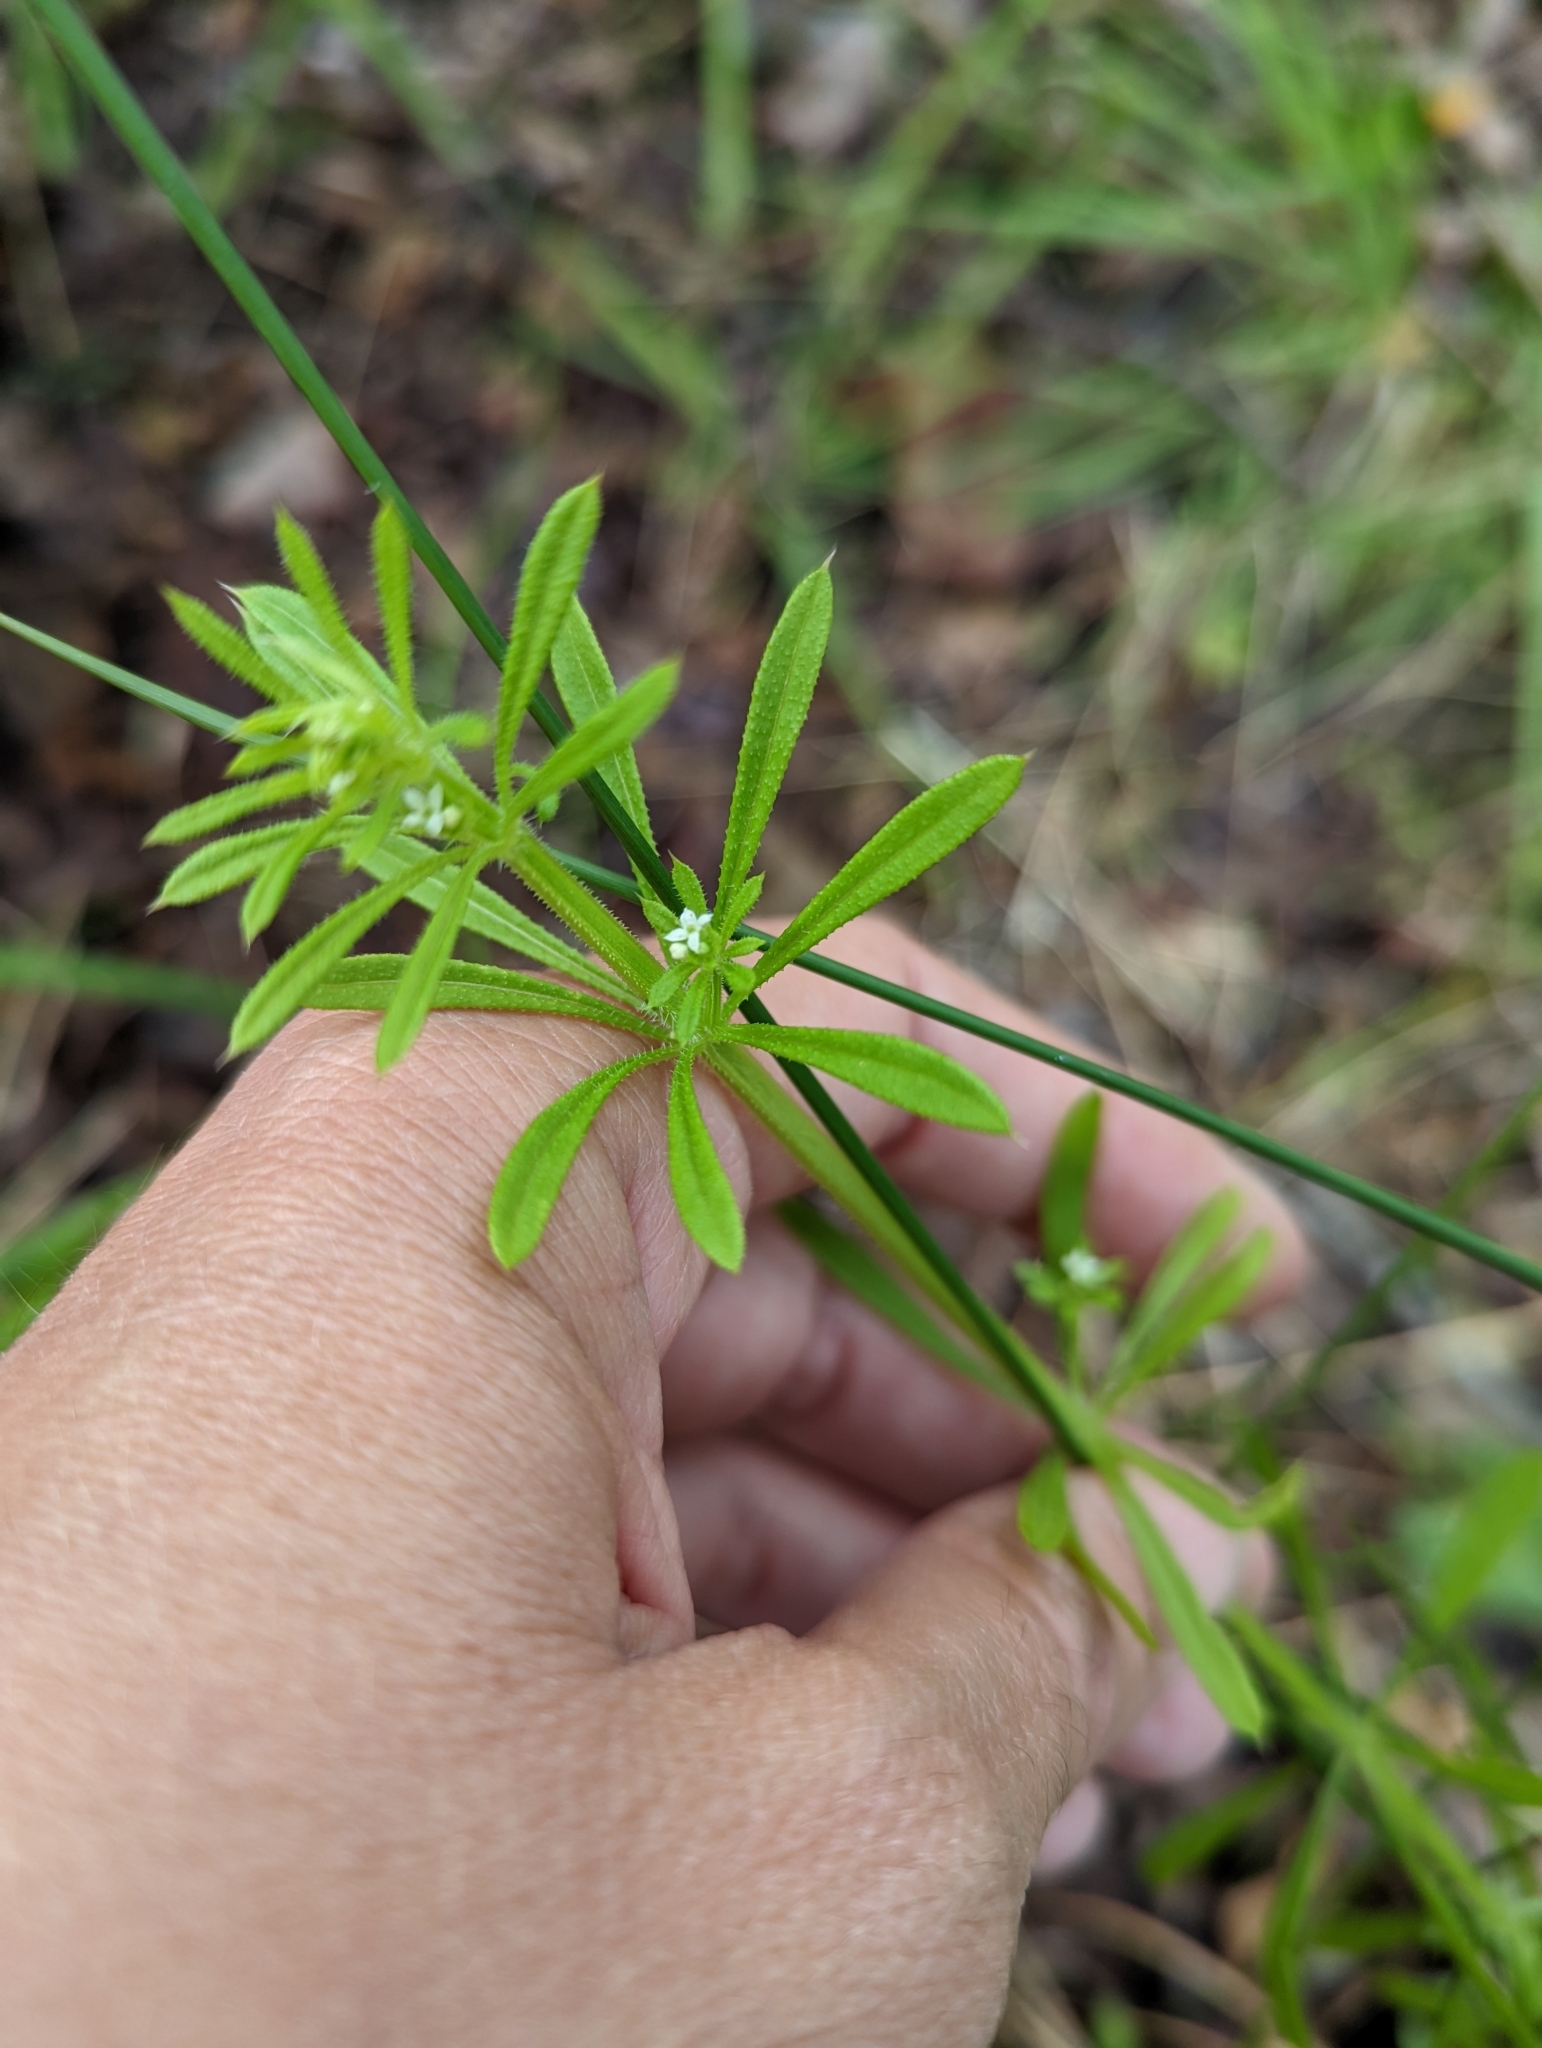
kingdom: Plantae
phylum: Tracheophyta
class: Magnoliopsida
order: Gentianales
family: Rubiaceae
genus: Galium
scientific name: Galium aparine
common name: Cleavers
